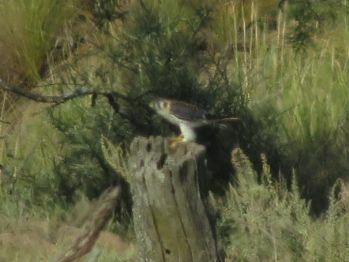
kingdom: Animalia
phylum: Chordata
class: Aves
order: Falconiformes
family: Falconidae
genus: Falco
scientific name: Falco sparverius
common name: American kestrel
